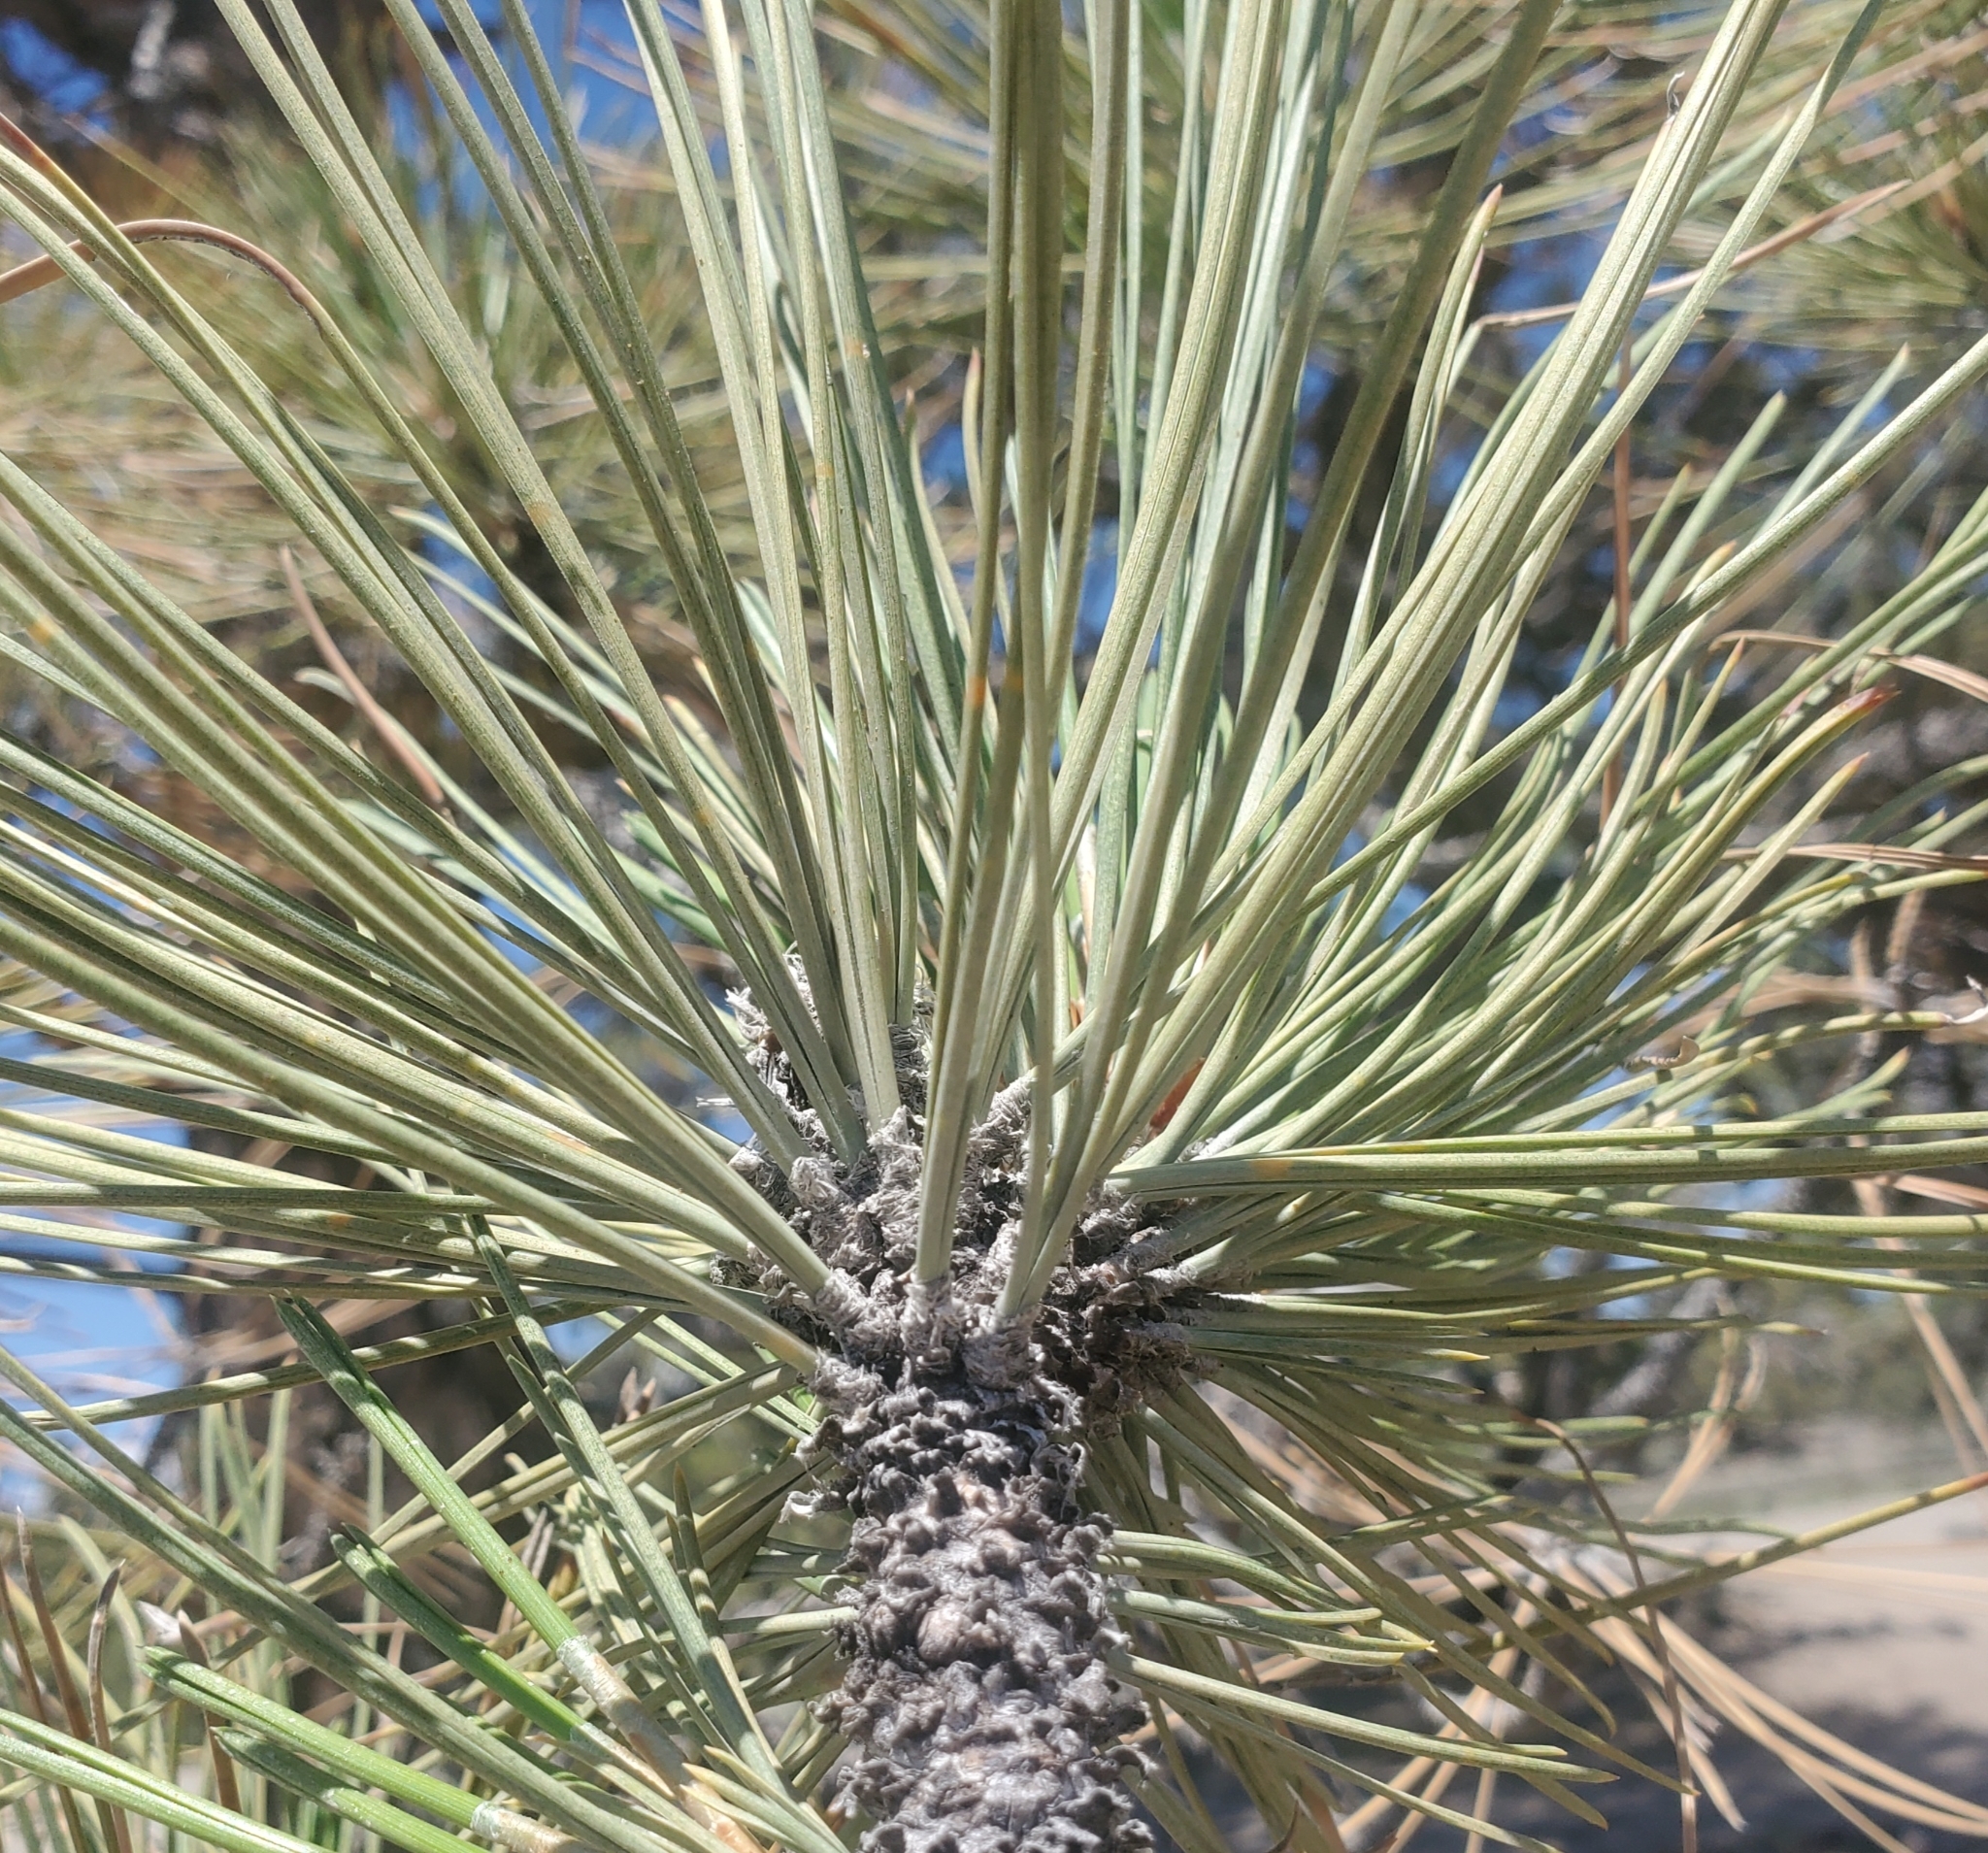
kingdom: Plantae
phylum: Tracheophyta
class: Pinopsida
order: Pinales
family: Pinaceae
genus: Pinus
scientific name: Pinus ponderosa
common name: Western yellow-pine
